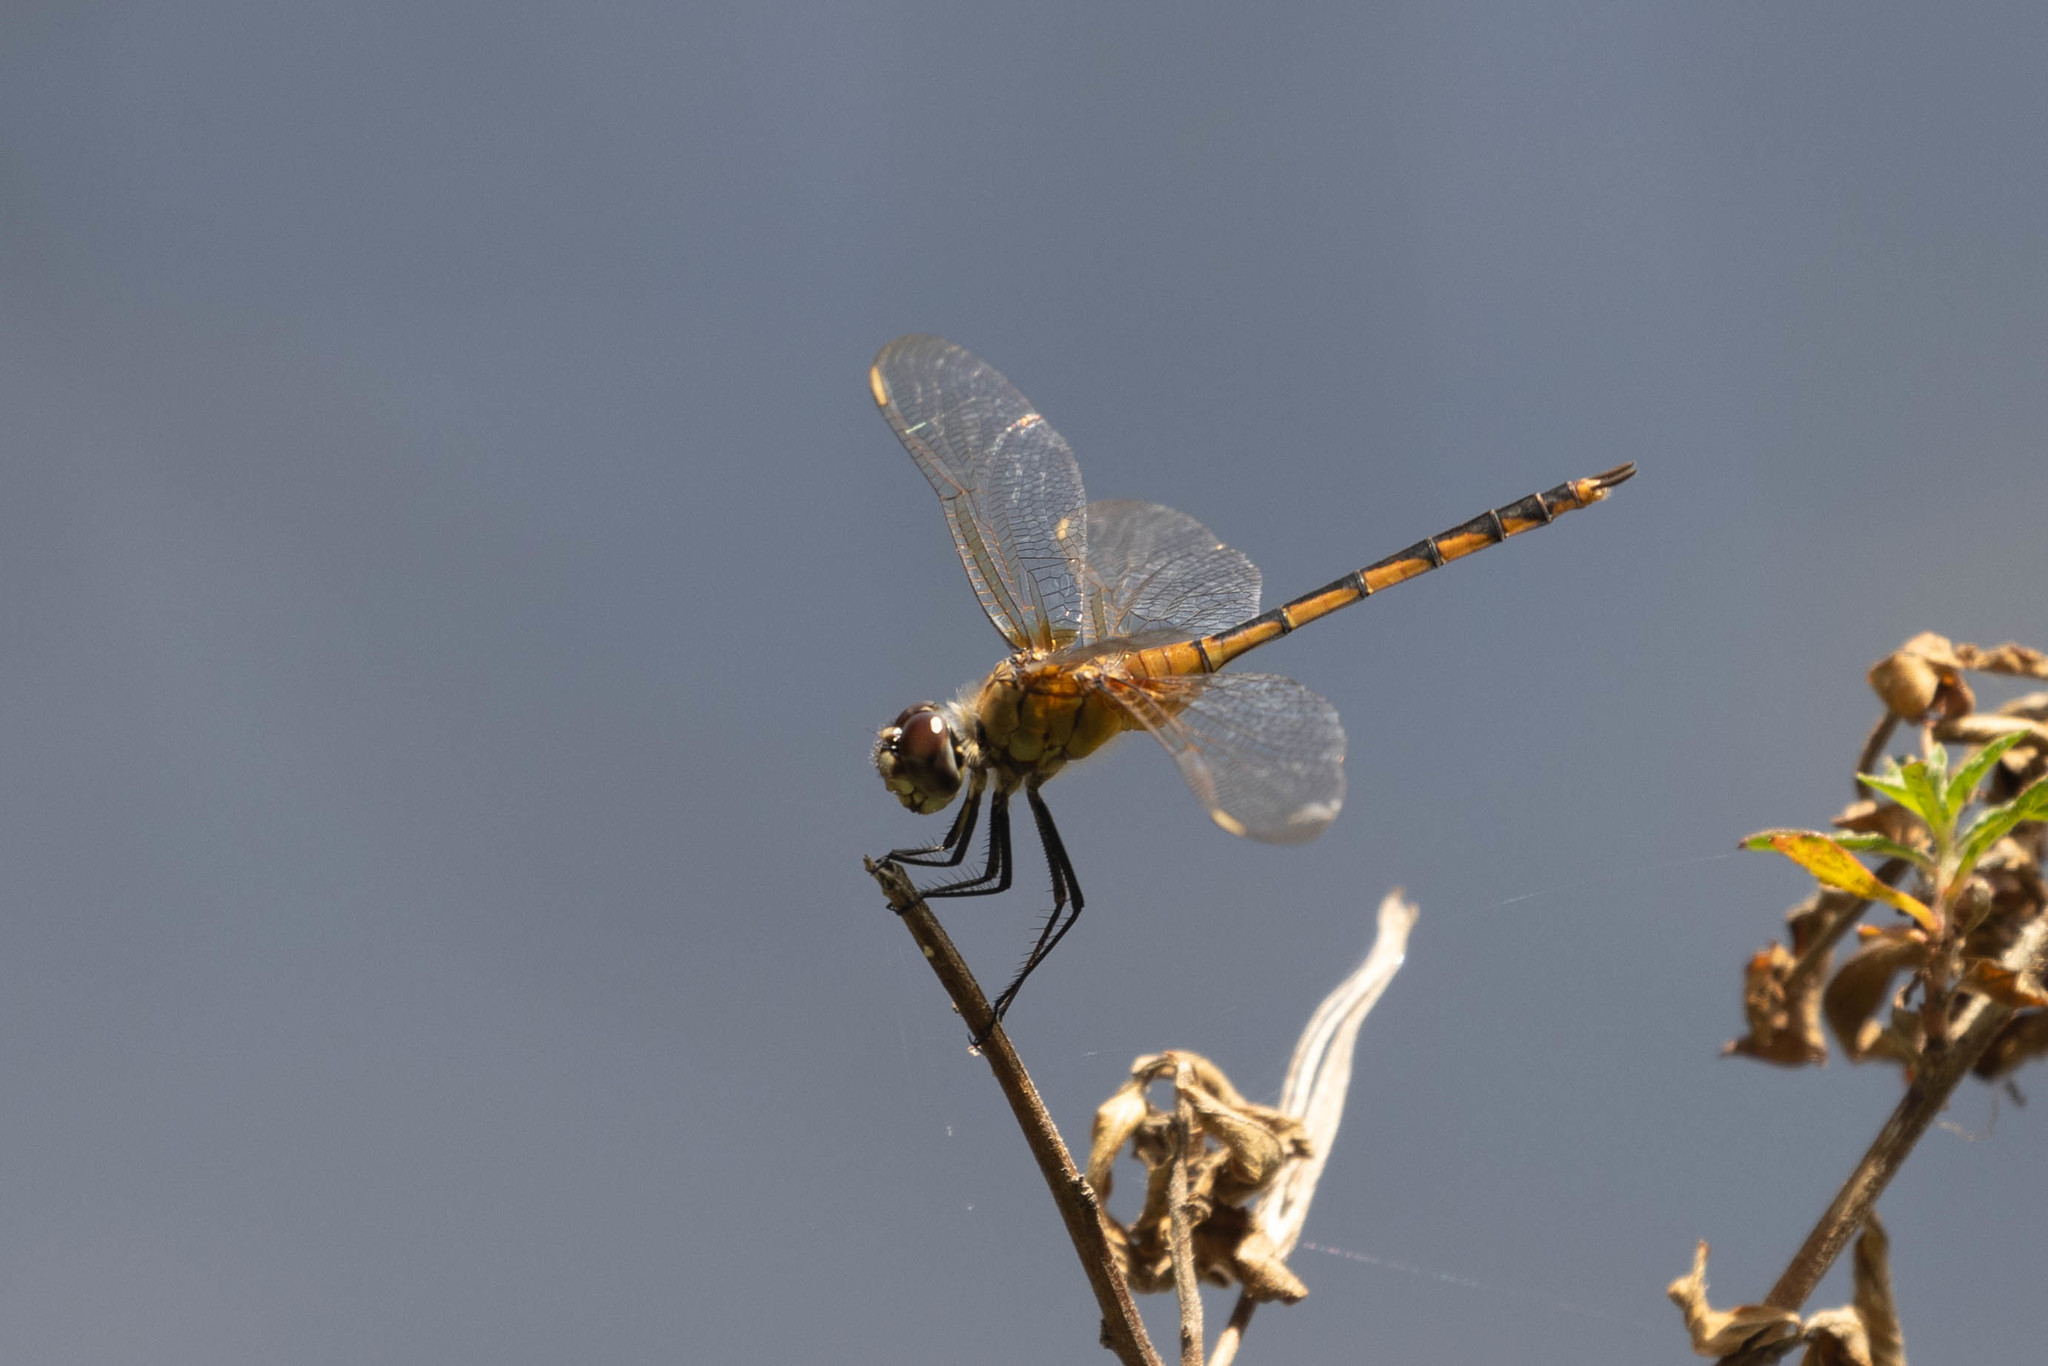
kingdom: Animalia
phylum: Arthropoda
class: Insecta
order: Odonata
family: Libellulidae
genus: Brachymesia
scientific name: Brachymesia herbida
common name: Tawny pennant
